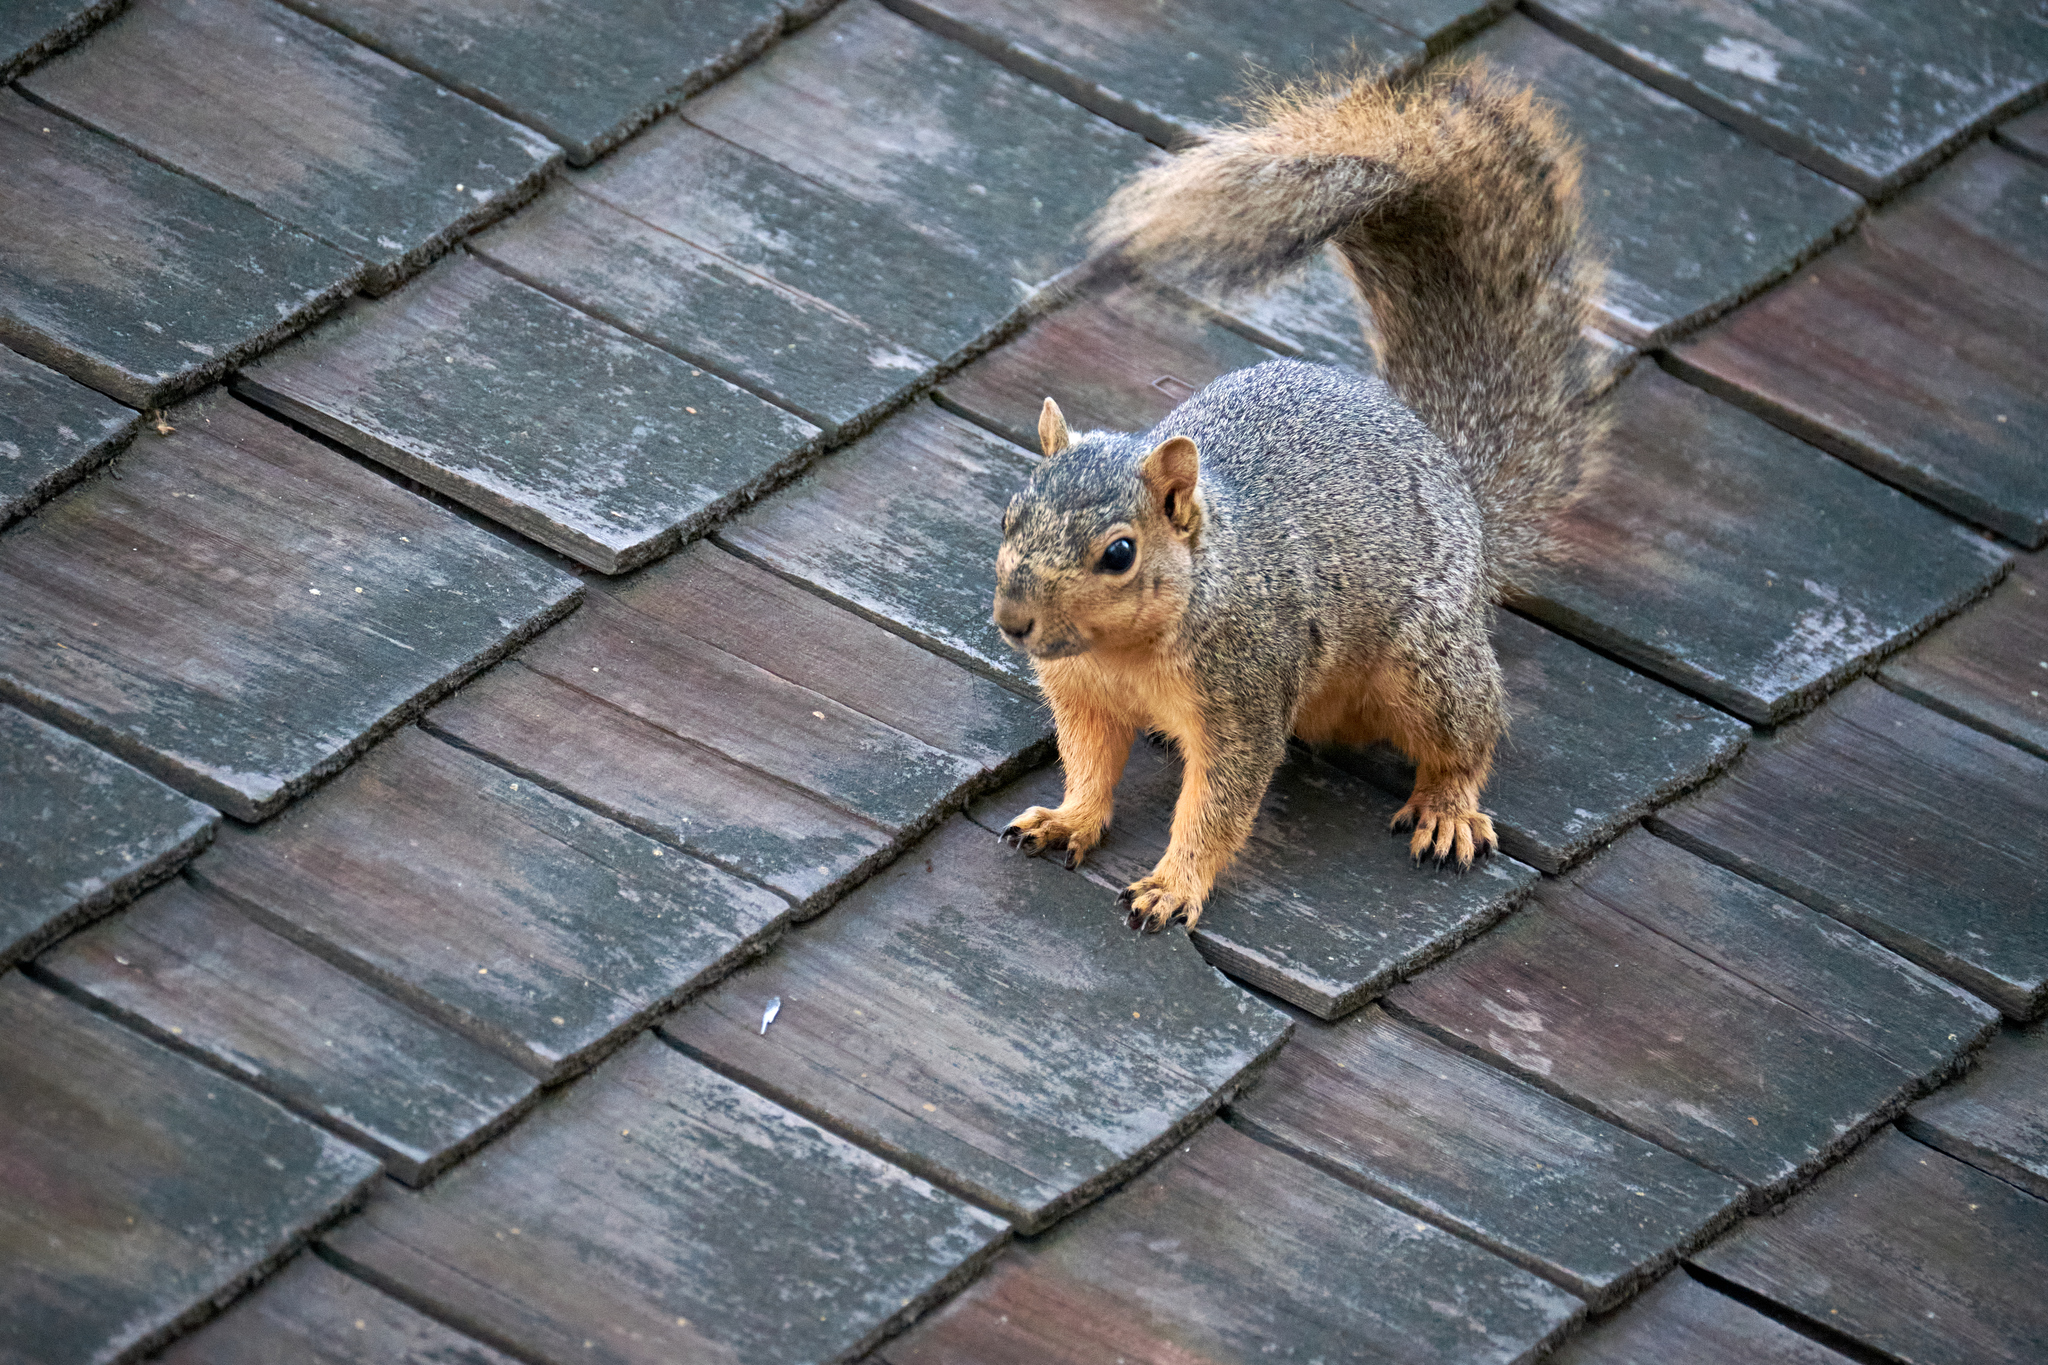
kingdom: Animalia
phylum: Chordata
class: Mammalia
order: Rodentia
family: Sciuridae
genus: Sciurus
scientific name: Sciurus niger
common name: Fox squirrel
